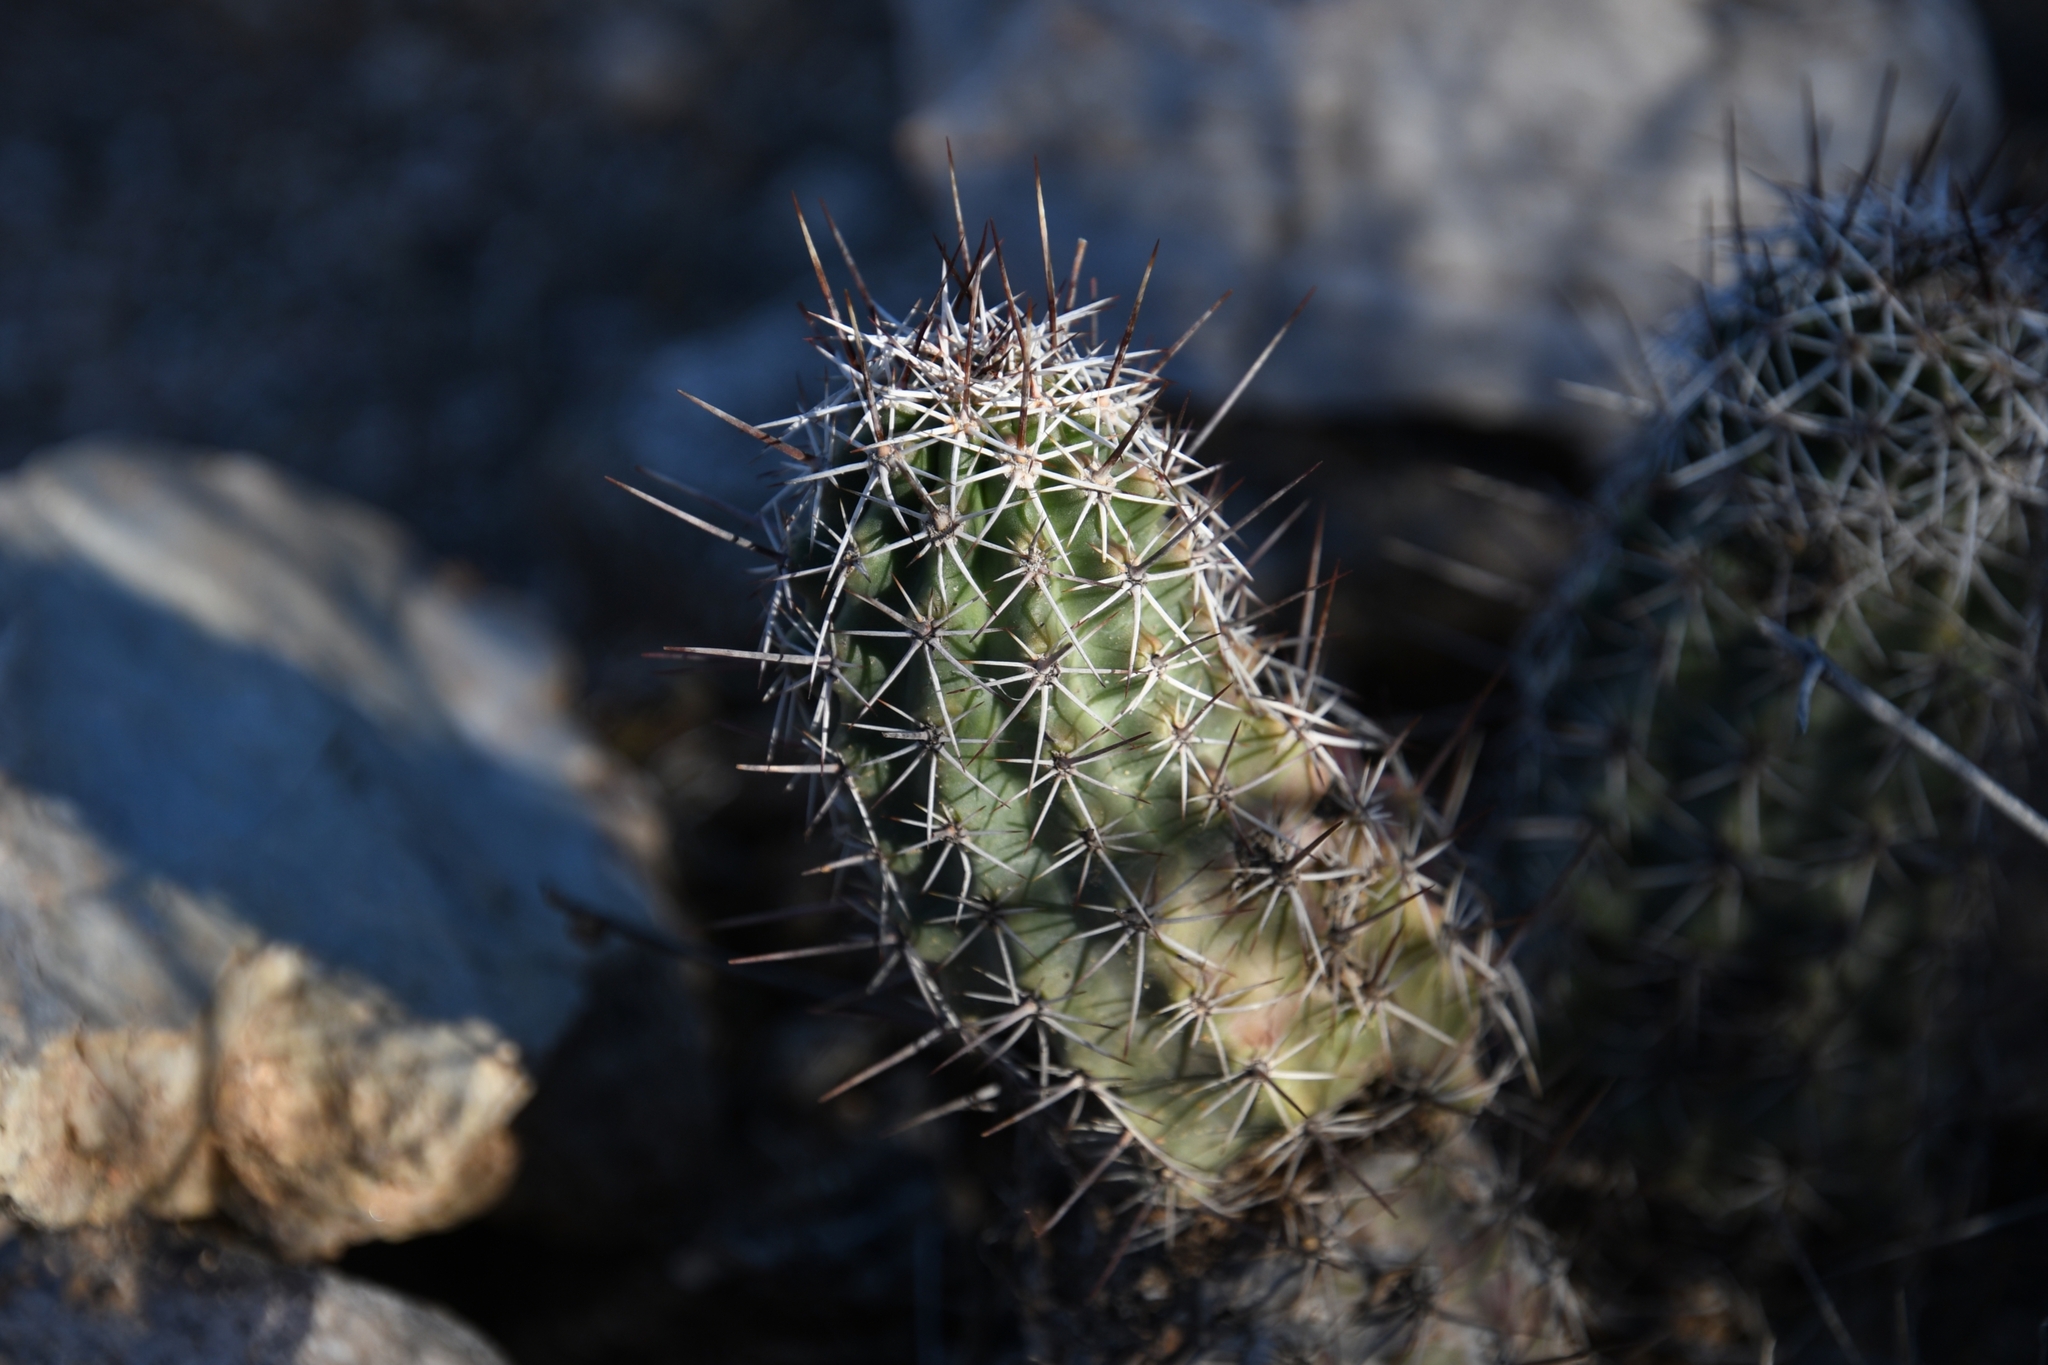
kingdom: Plantae
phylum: Tracheophyta
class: Magnoliopsida
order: Caryophyllales
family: Cactaceae
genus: Echinocereus
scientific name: Echinocereus fasciculatus
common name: Bundle hedgehog
